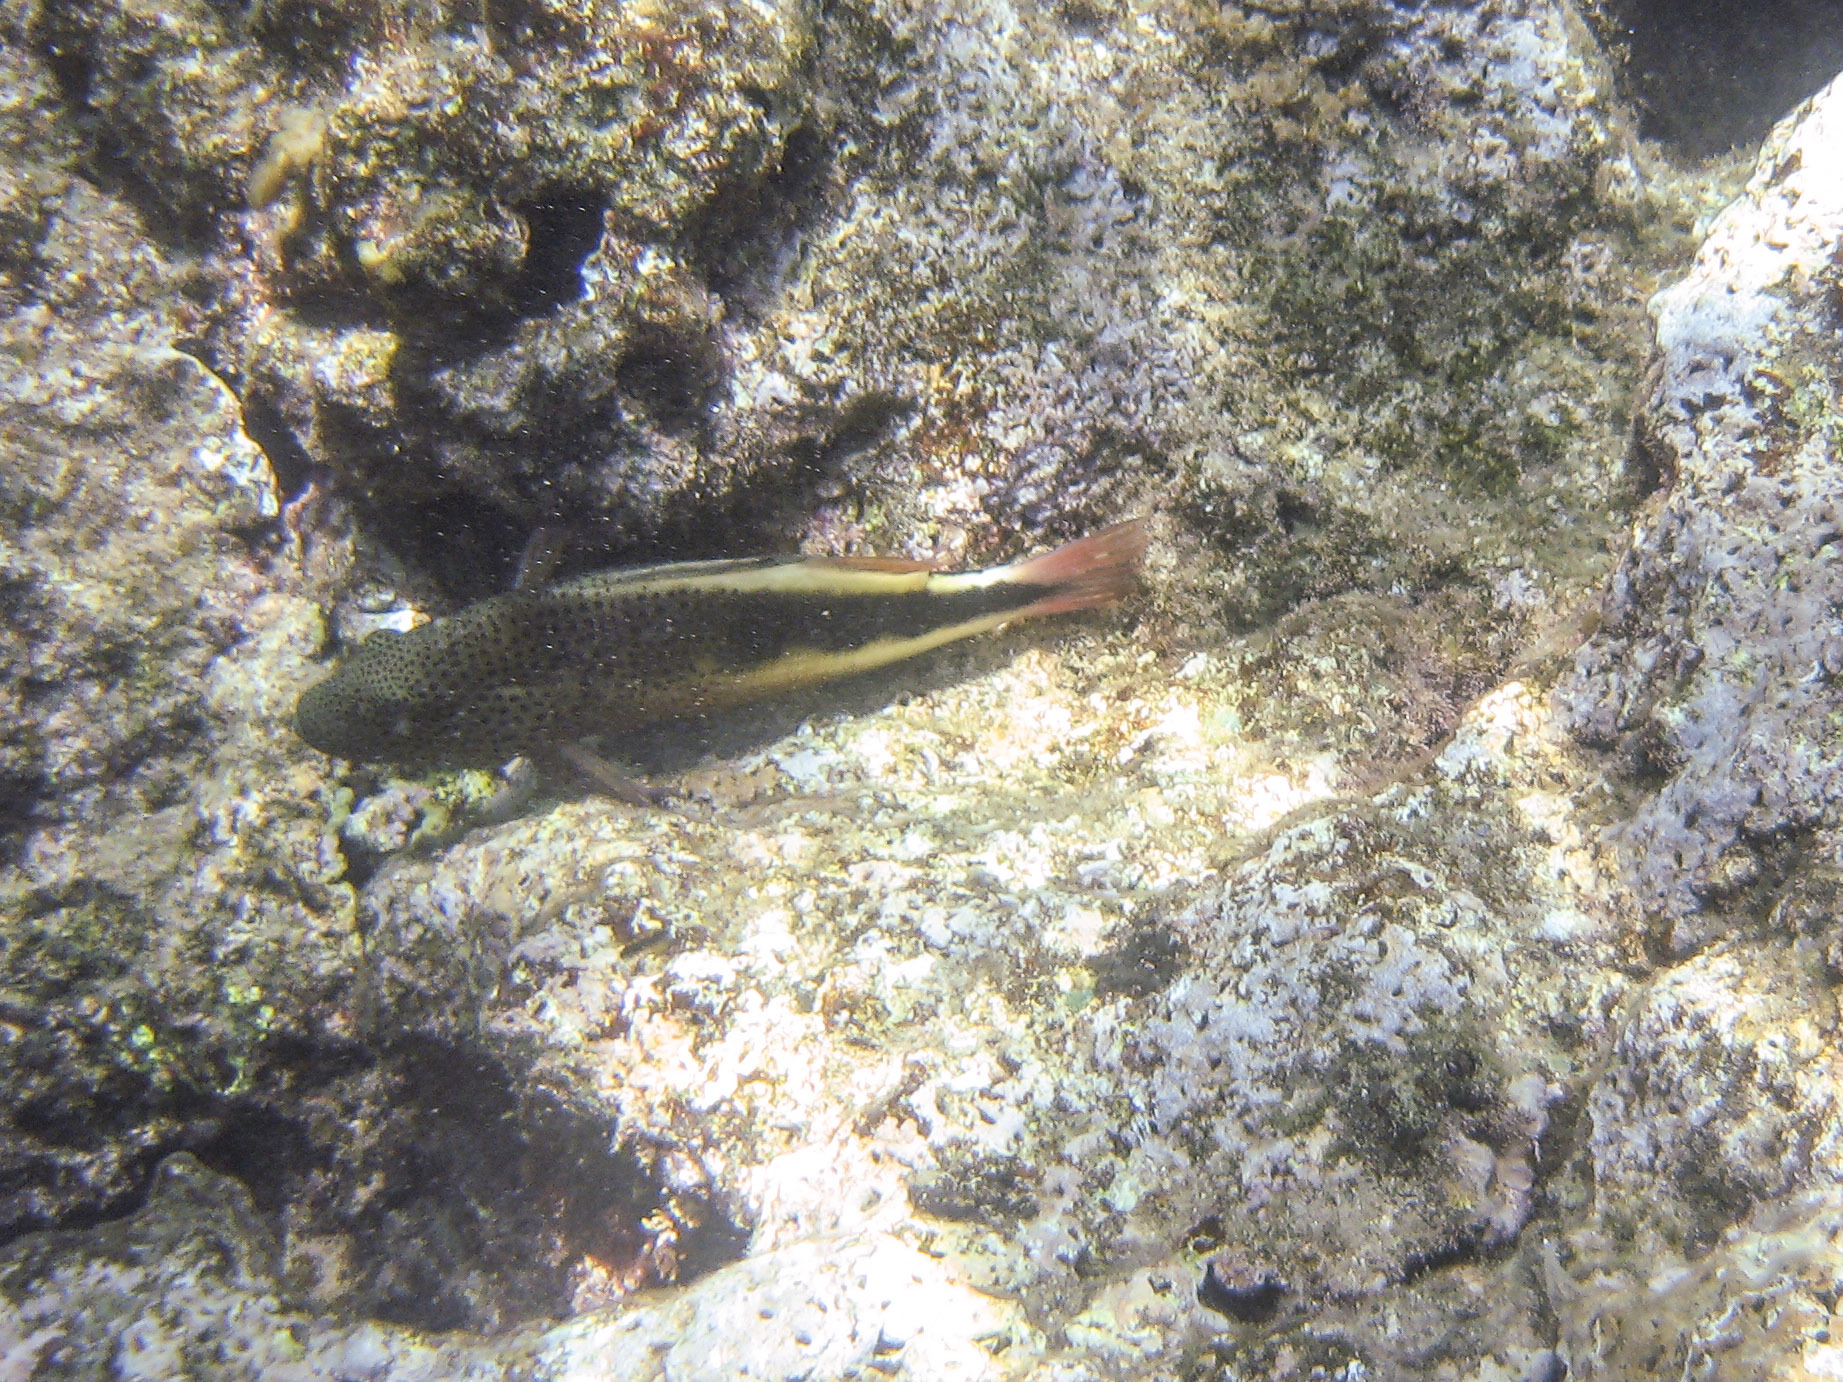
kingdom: Animalia
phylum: Chordata
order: Perciformes
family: Cirrhitidae
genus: Paracirrhites
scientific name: Paracirrhites forsteri
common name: Freckled hawkfish
